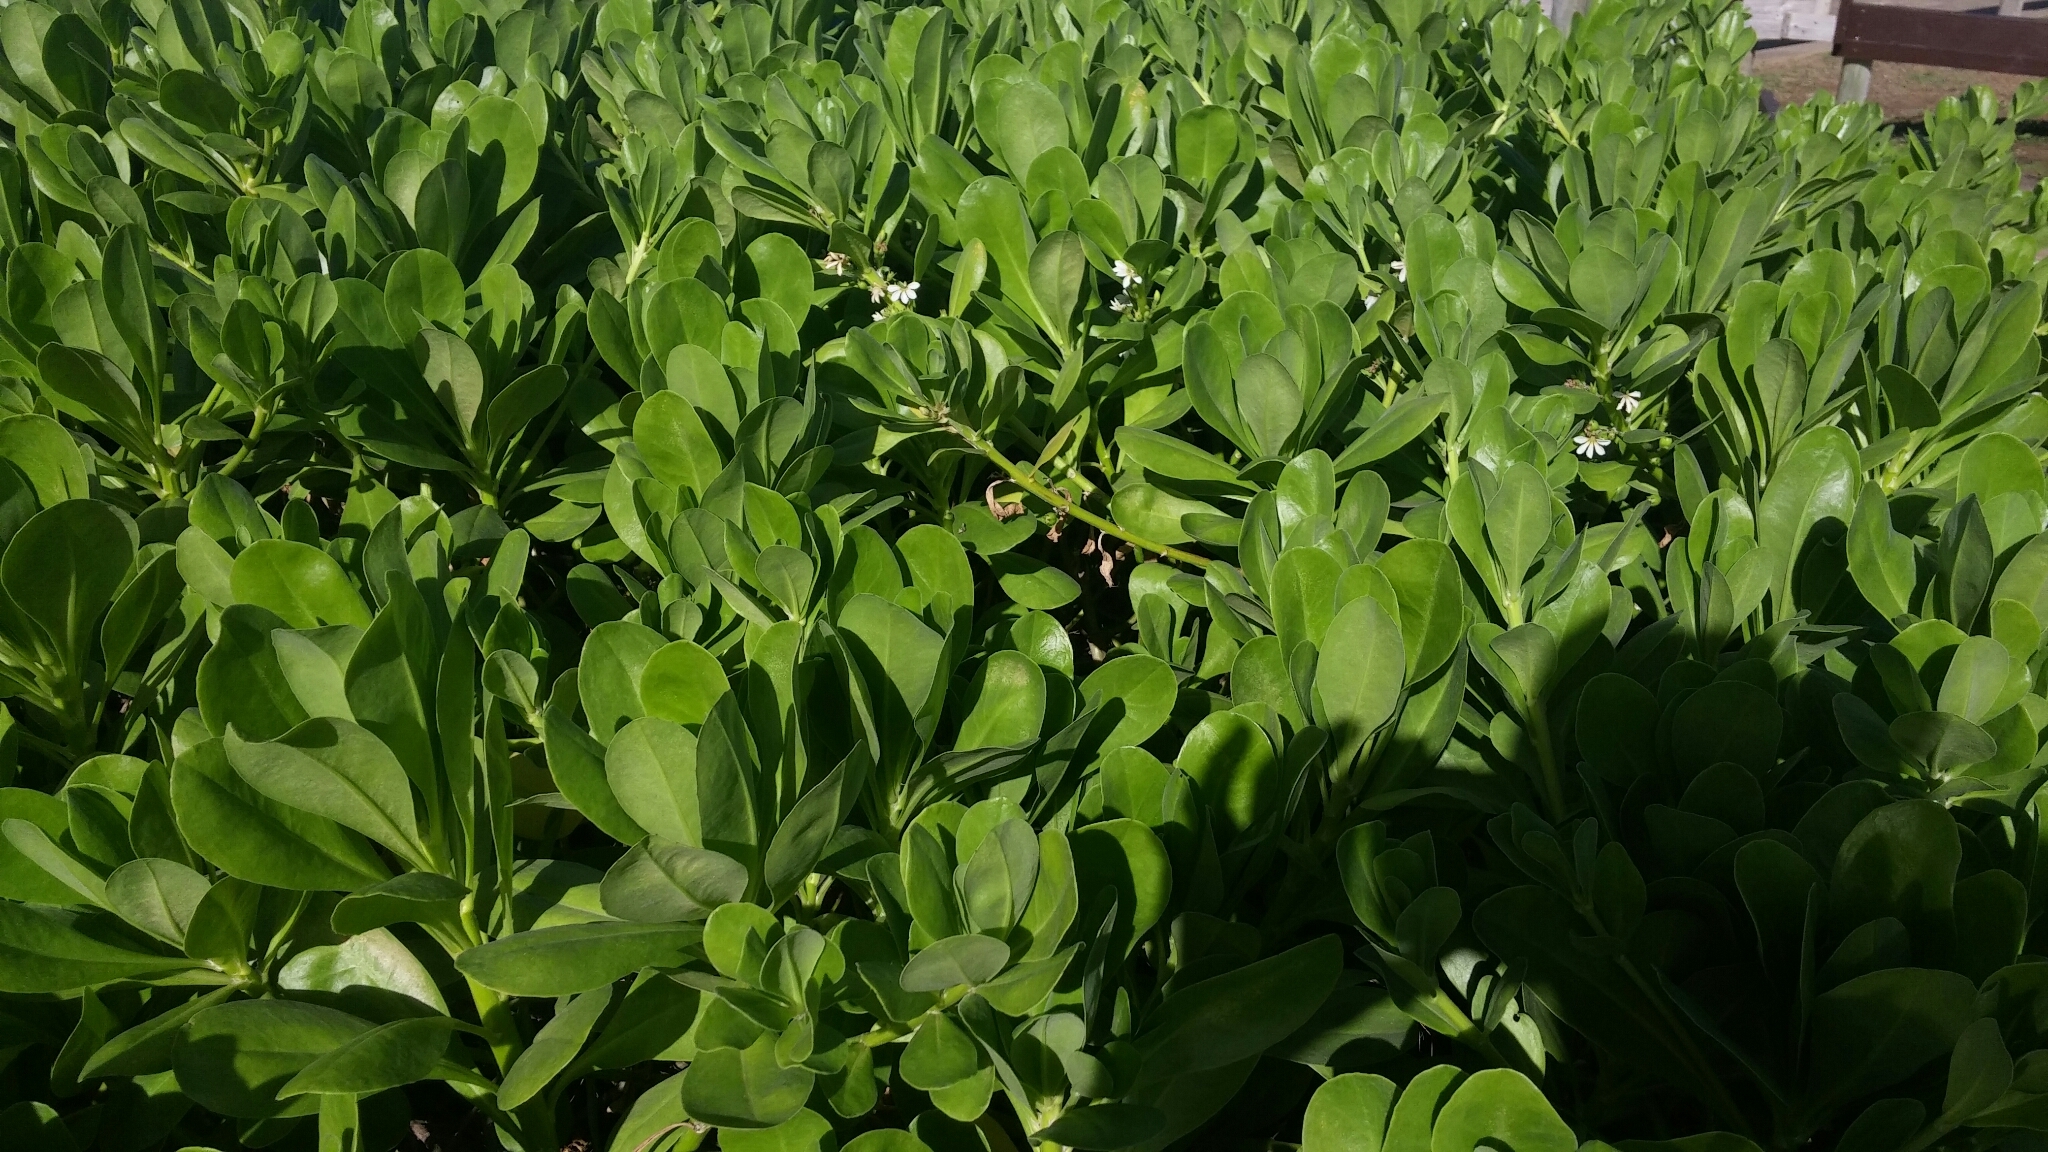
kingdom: Plantae
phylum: Tracheophyta
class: Magnoliopsida
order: Asterales
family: Goodeniaceae
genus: Scaevola
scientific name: Scaevola taccada
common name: Sea lettucetree
